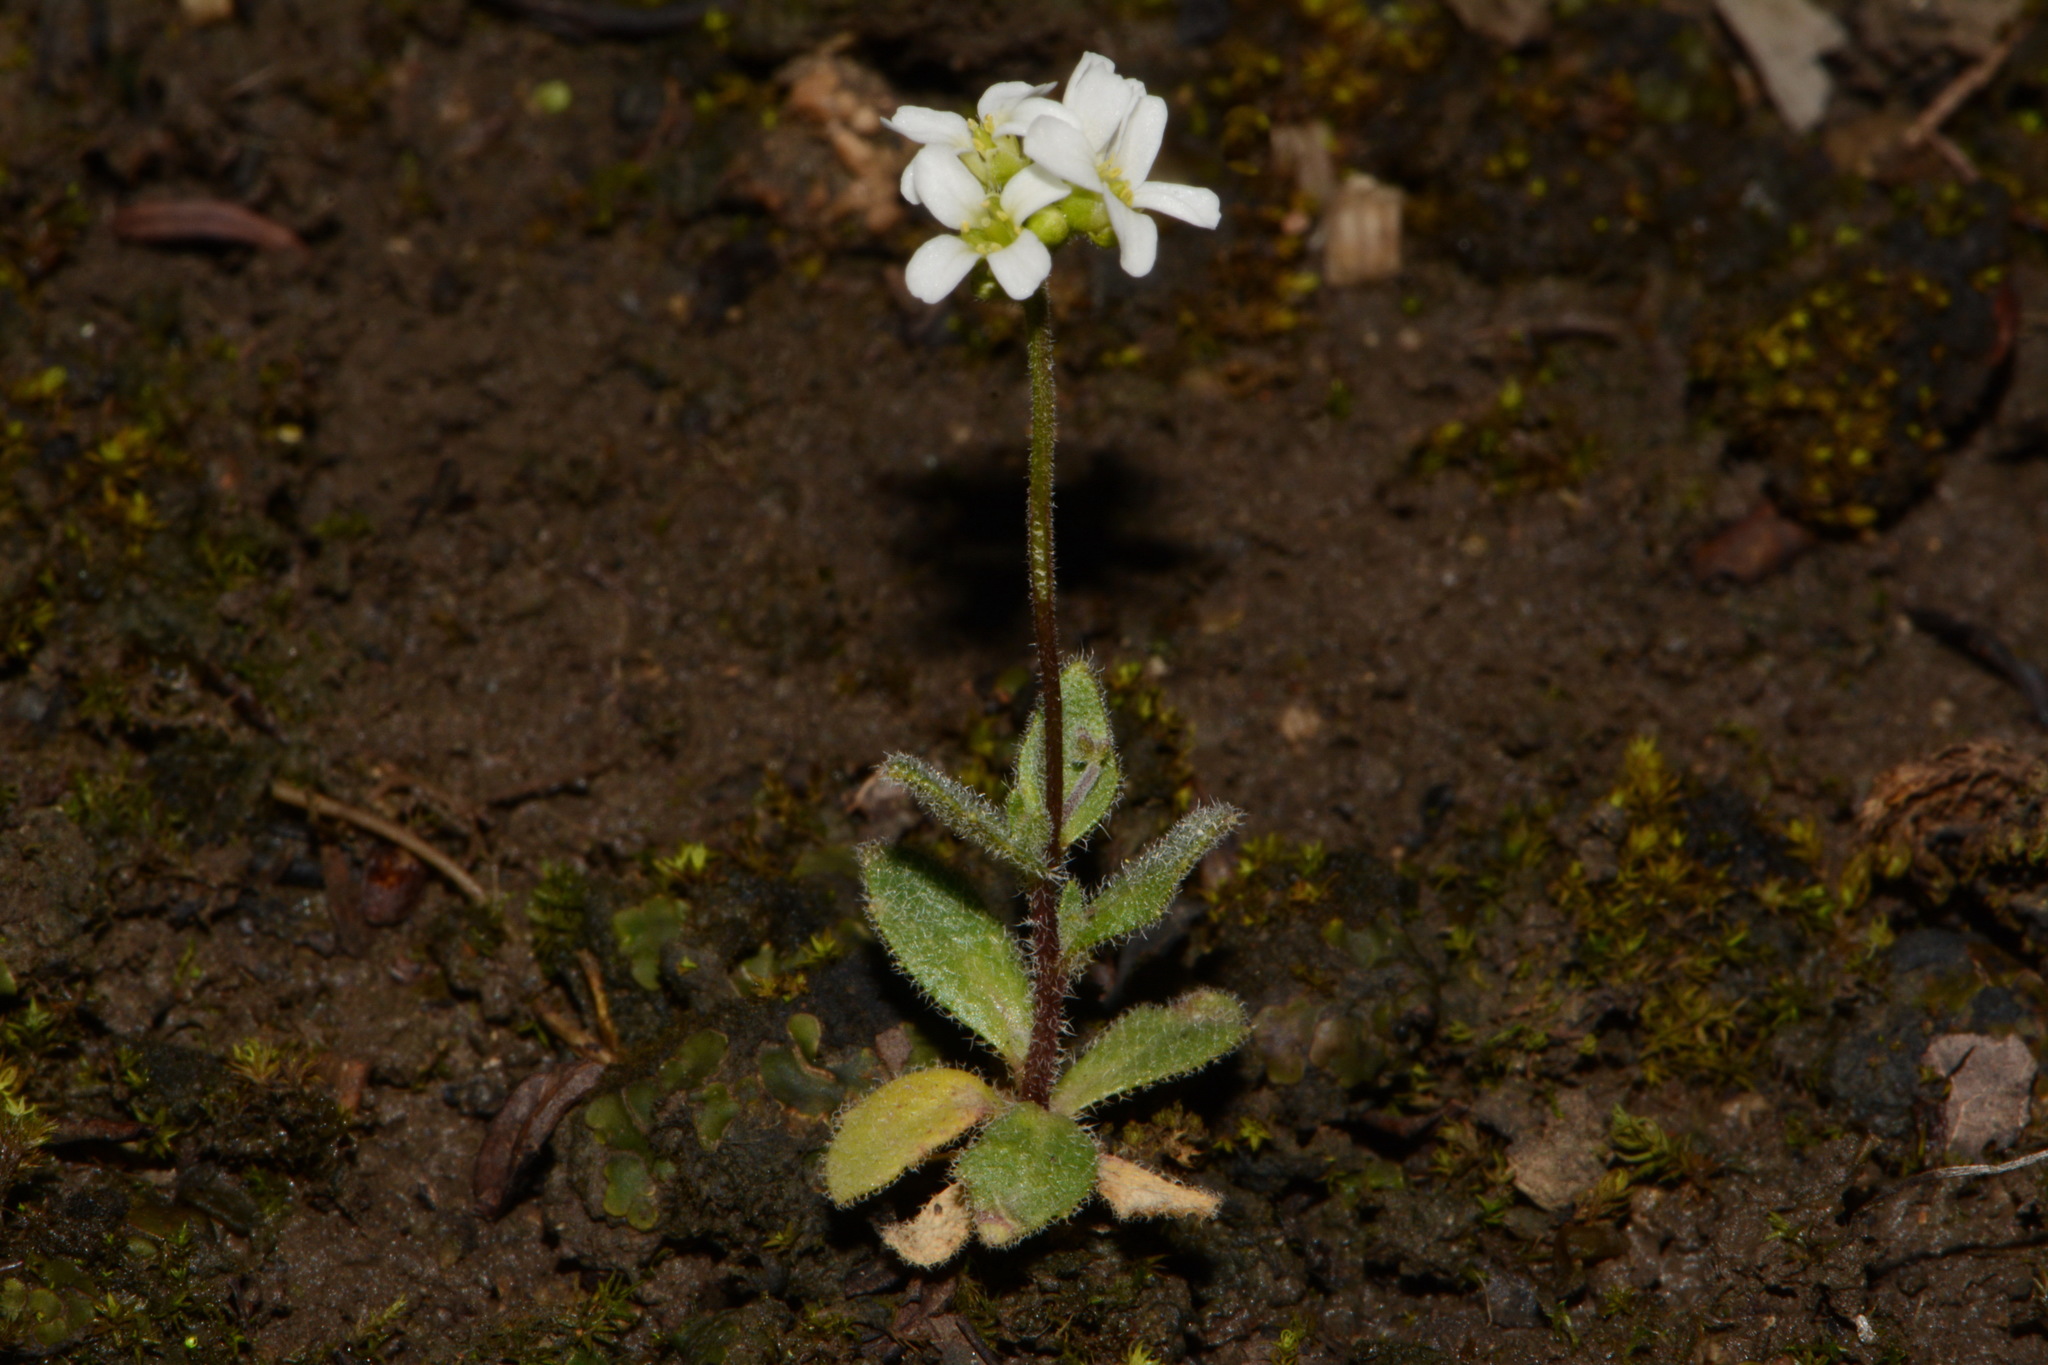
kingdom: Plantae
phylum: Tracheophyta
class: Magnoliopsida
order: Brassicales
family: Brassicaceae
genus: Tomostima
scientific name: Tomostima cuneifolia
